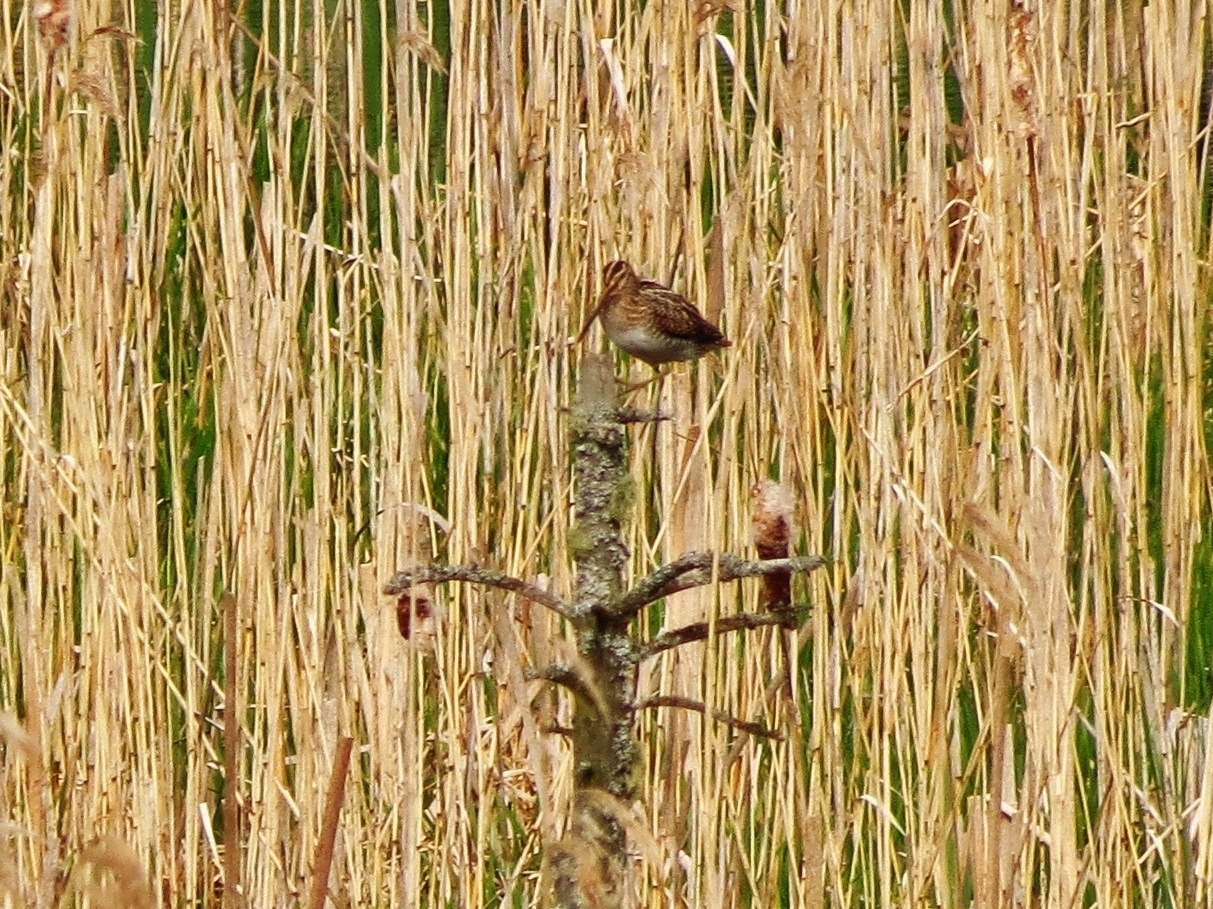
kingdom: Animalia
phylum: Chordata
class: Aves
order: Charadriiformes
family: Scolopacidae
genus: Gallinago
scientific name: Gallinago gallinago
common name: Common snipe
